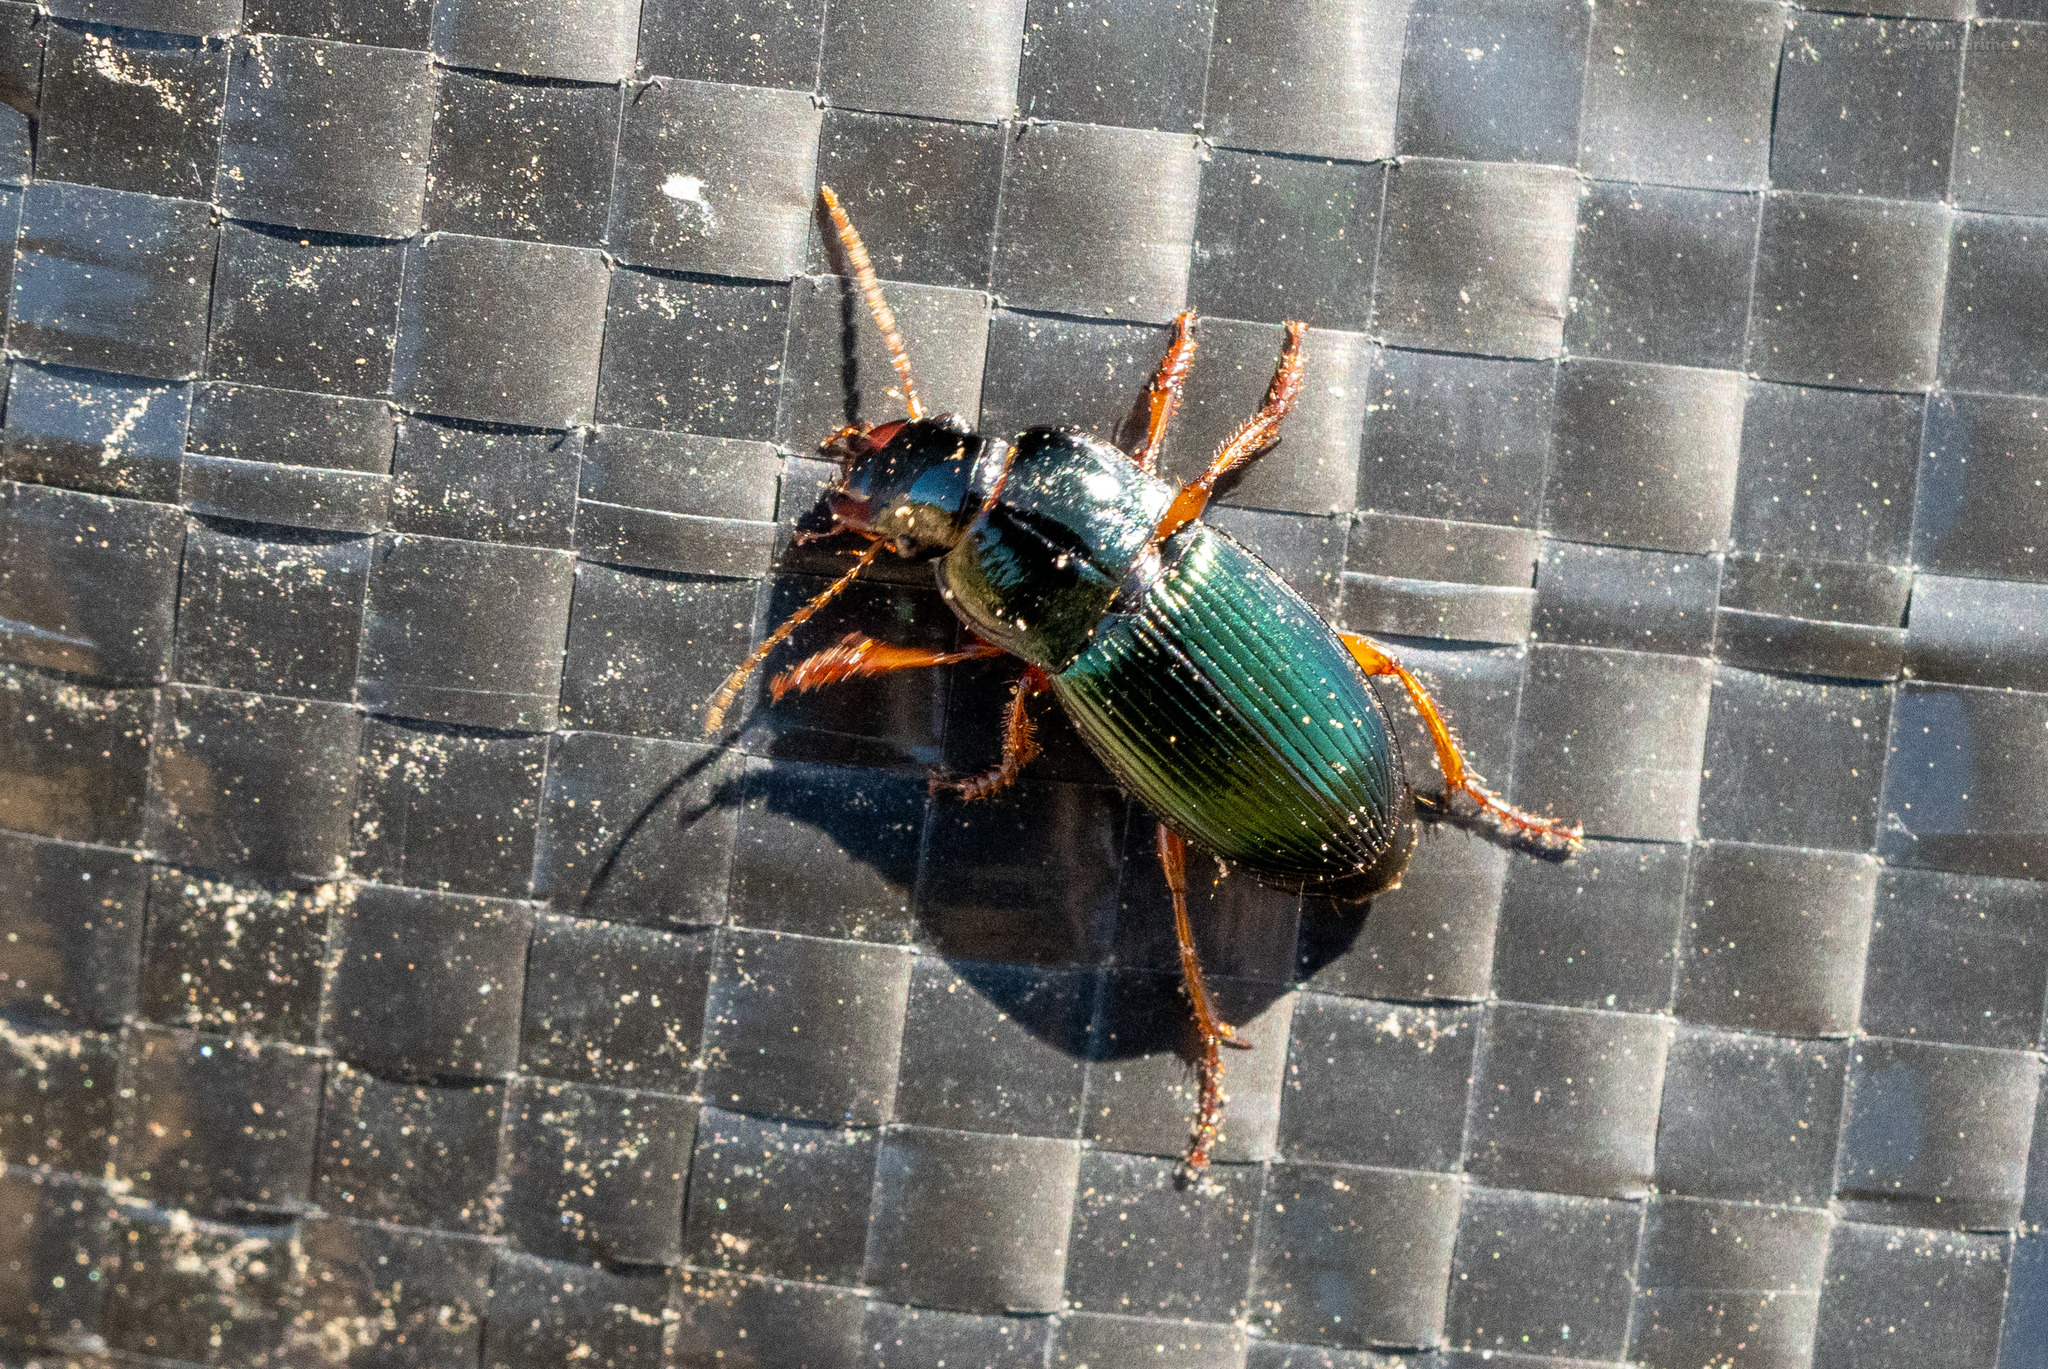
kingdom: Animalia
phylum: Arthropoda
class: Insecta
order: Coleoptera
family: Carabidae
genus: Harpalus
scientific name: Harpalus rubripes
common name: Red-legged harp ground beetle
